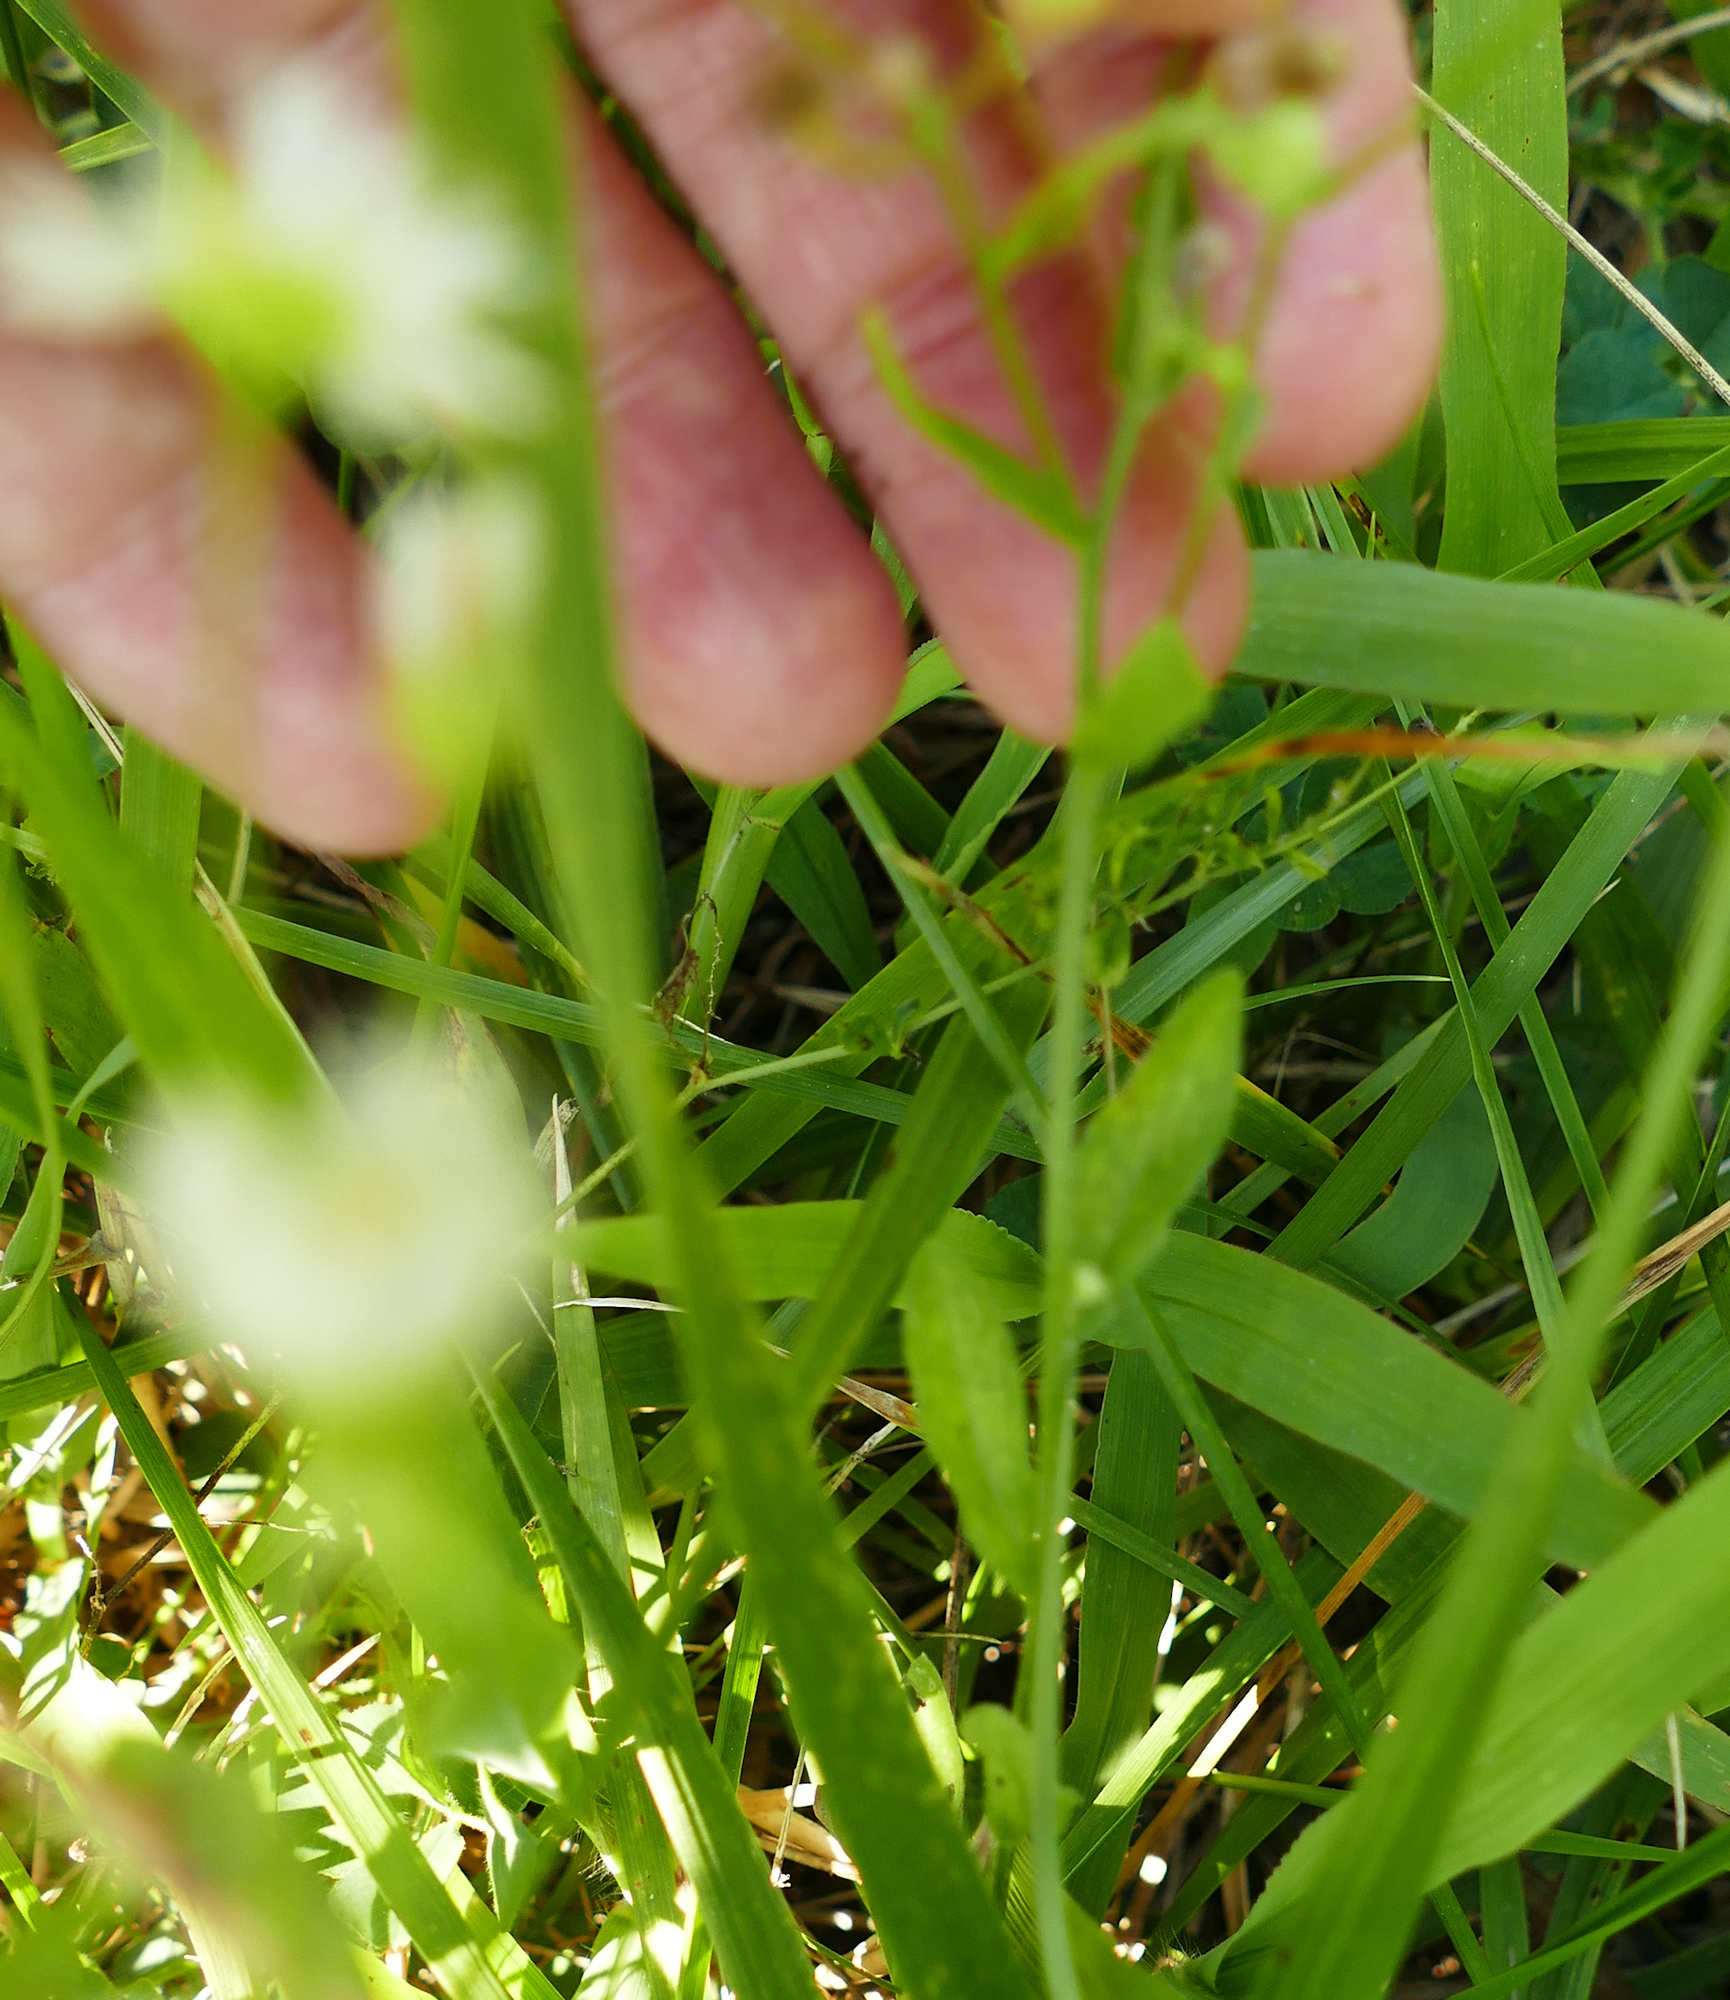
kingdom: Plantae
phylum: Tracheophyta
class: Magnoliopsida
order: Asterales
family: Asteraceae
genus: Erigeron
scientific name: Erigeron strigosus
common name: Common eastern fleabane
